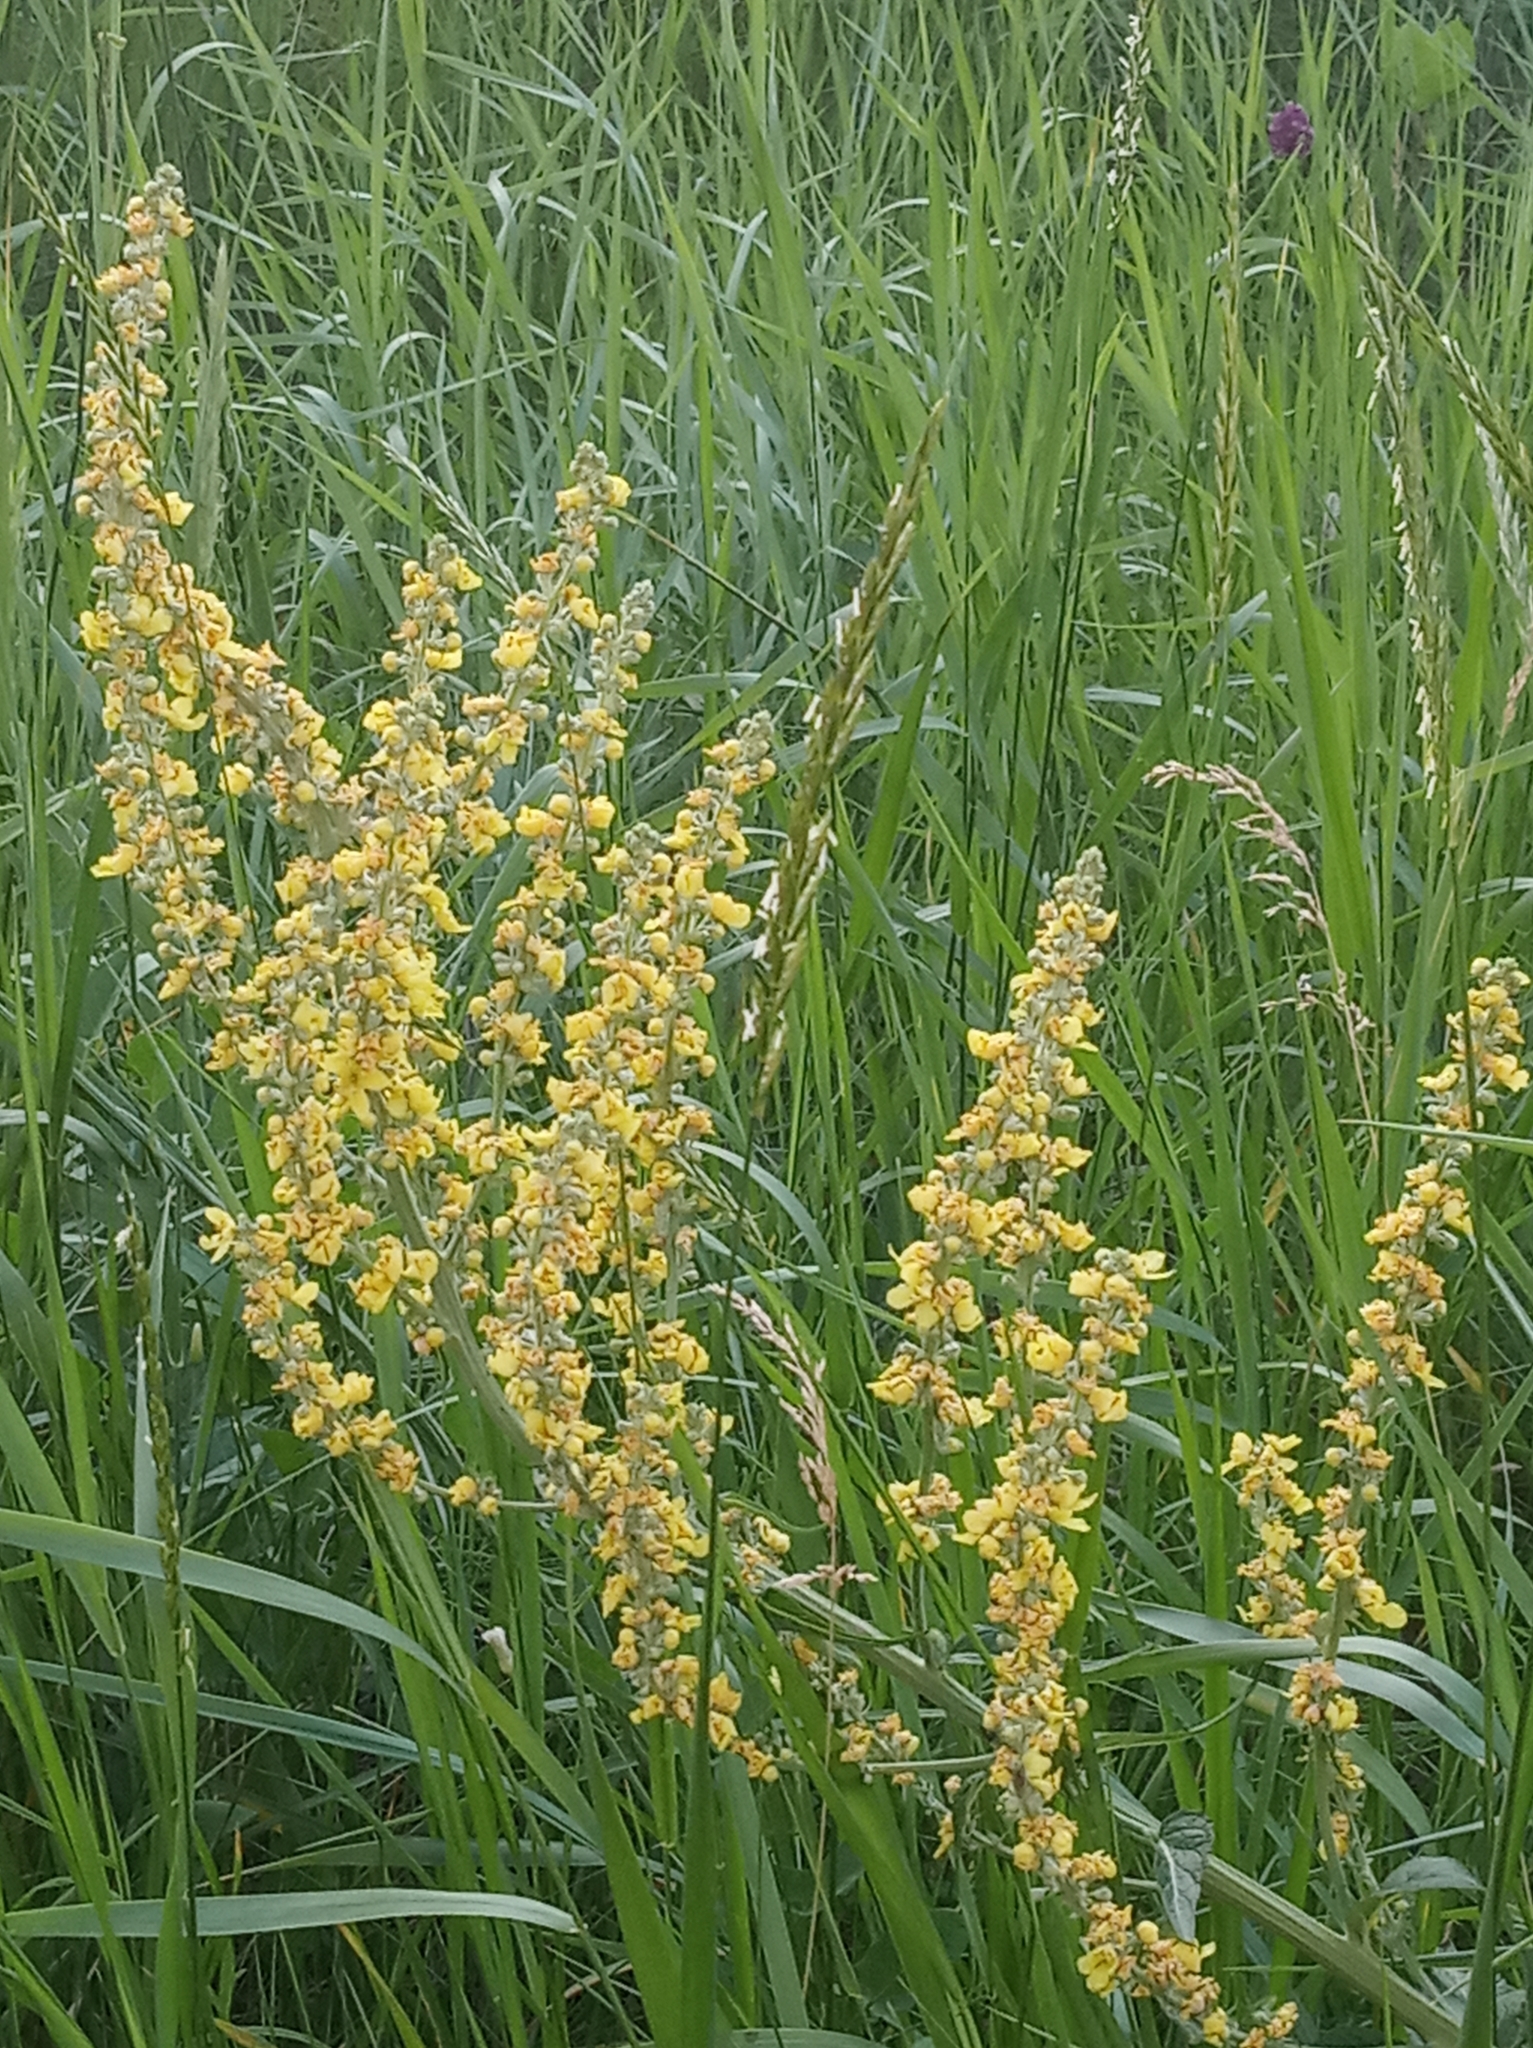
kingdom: Plantae
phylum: Tracheophyta
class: Magnoliopsida
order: Lamiales
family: Scrophulariaceae
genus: Verbascum
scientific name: Verbascum lychnitis
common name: White mullein
